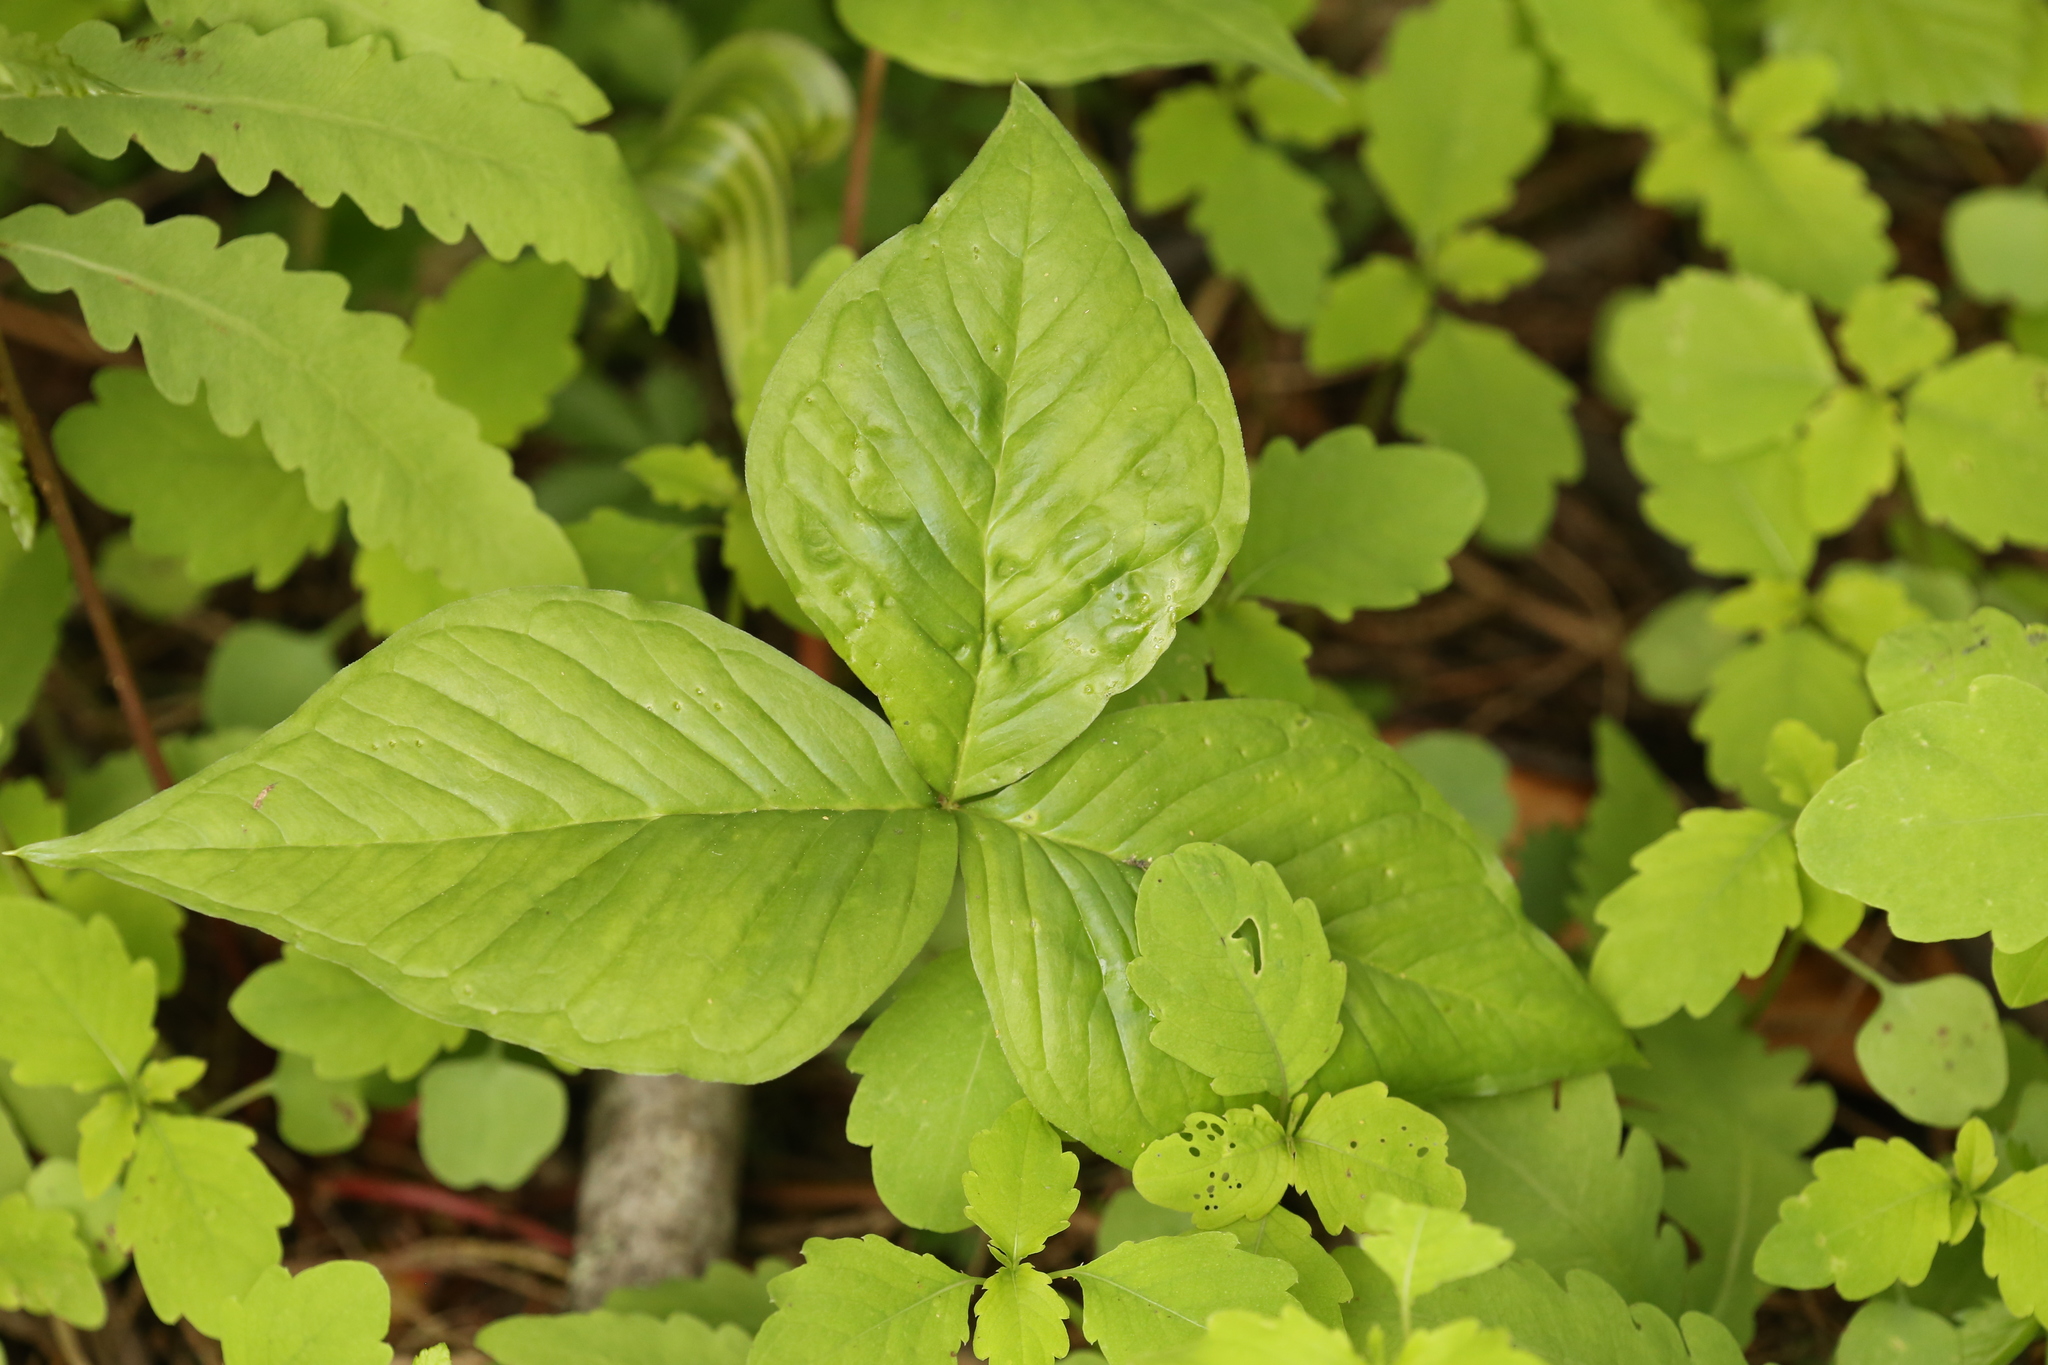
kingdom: Plantae
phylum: Tracheophyta
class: Liliopsida
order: Alismatales
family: Araceae
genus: Arisaema
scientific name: Arisaema triphyllum
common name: Jack-in-the-pulpit
